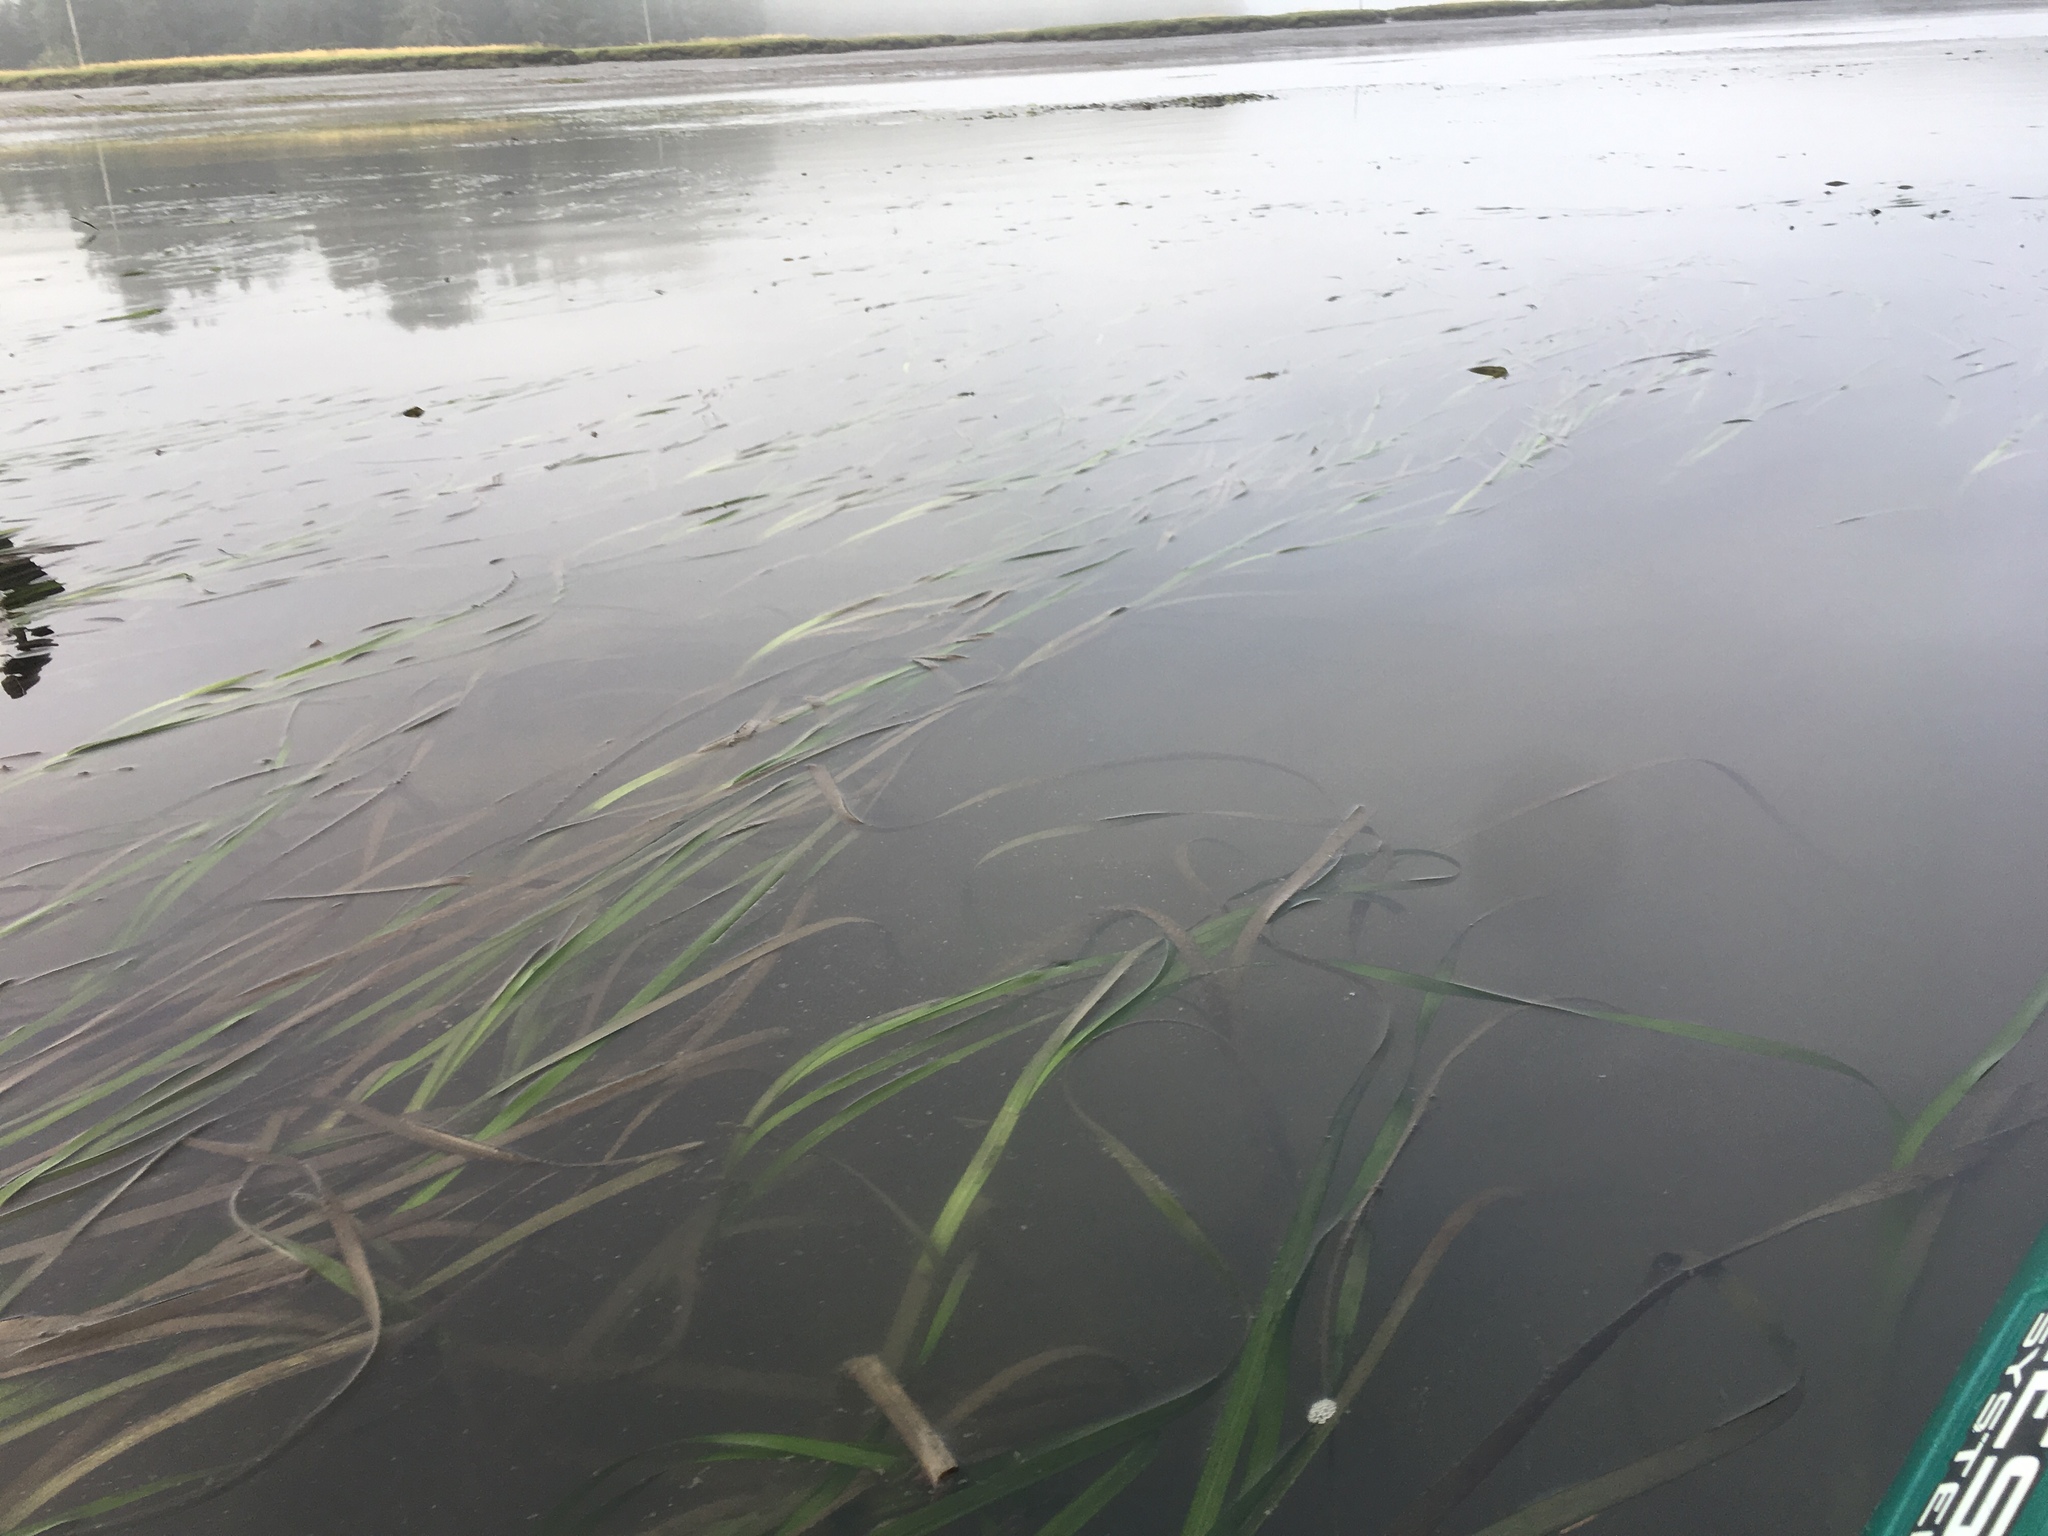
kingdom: Plantae
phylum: Tracheophyta
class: Liliopsida
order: Alismatales
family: Zosteraceae
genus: Zostera
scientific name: Zostera marina
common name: Eelgrass
